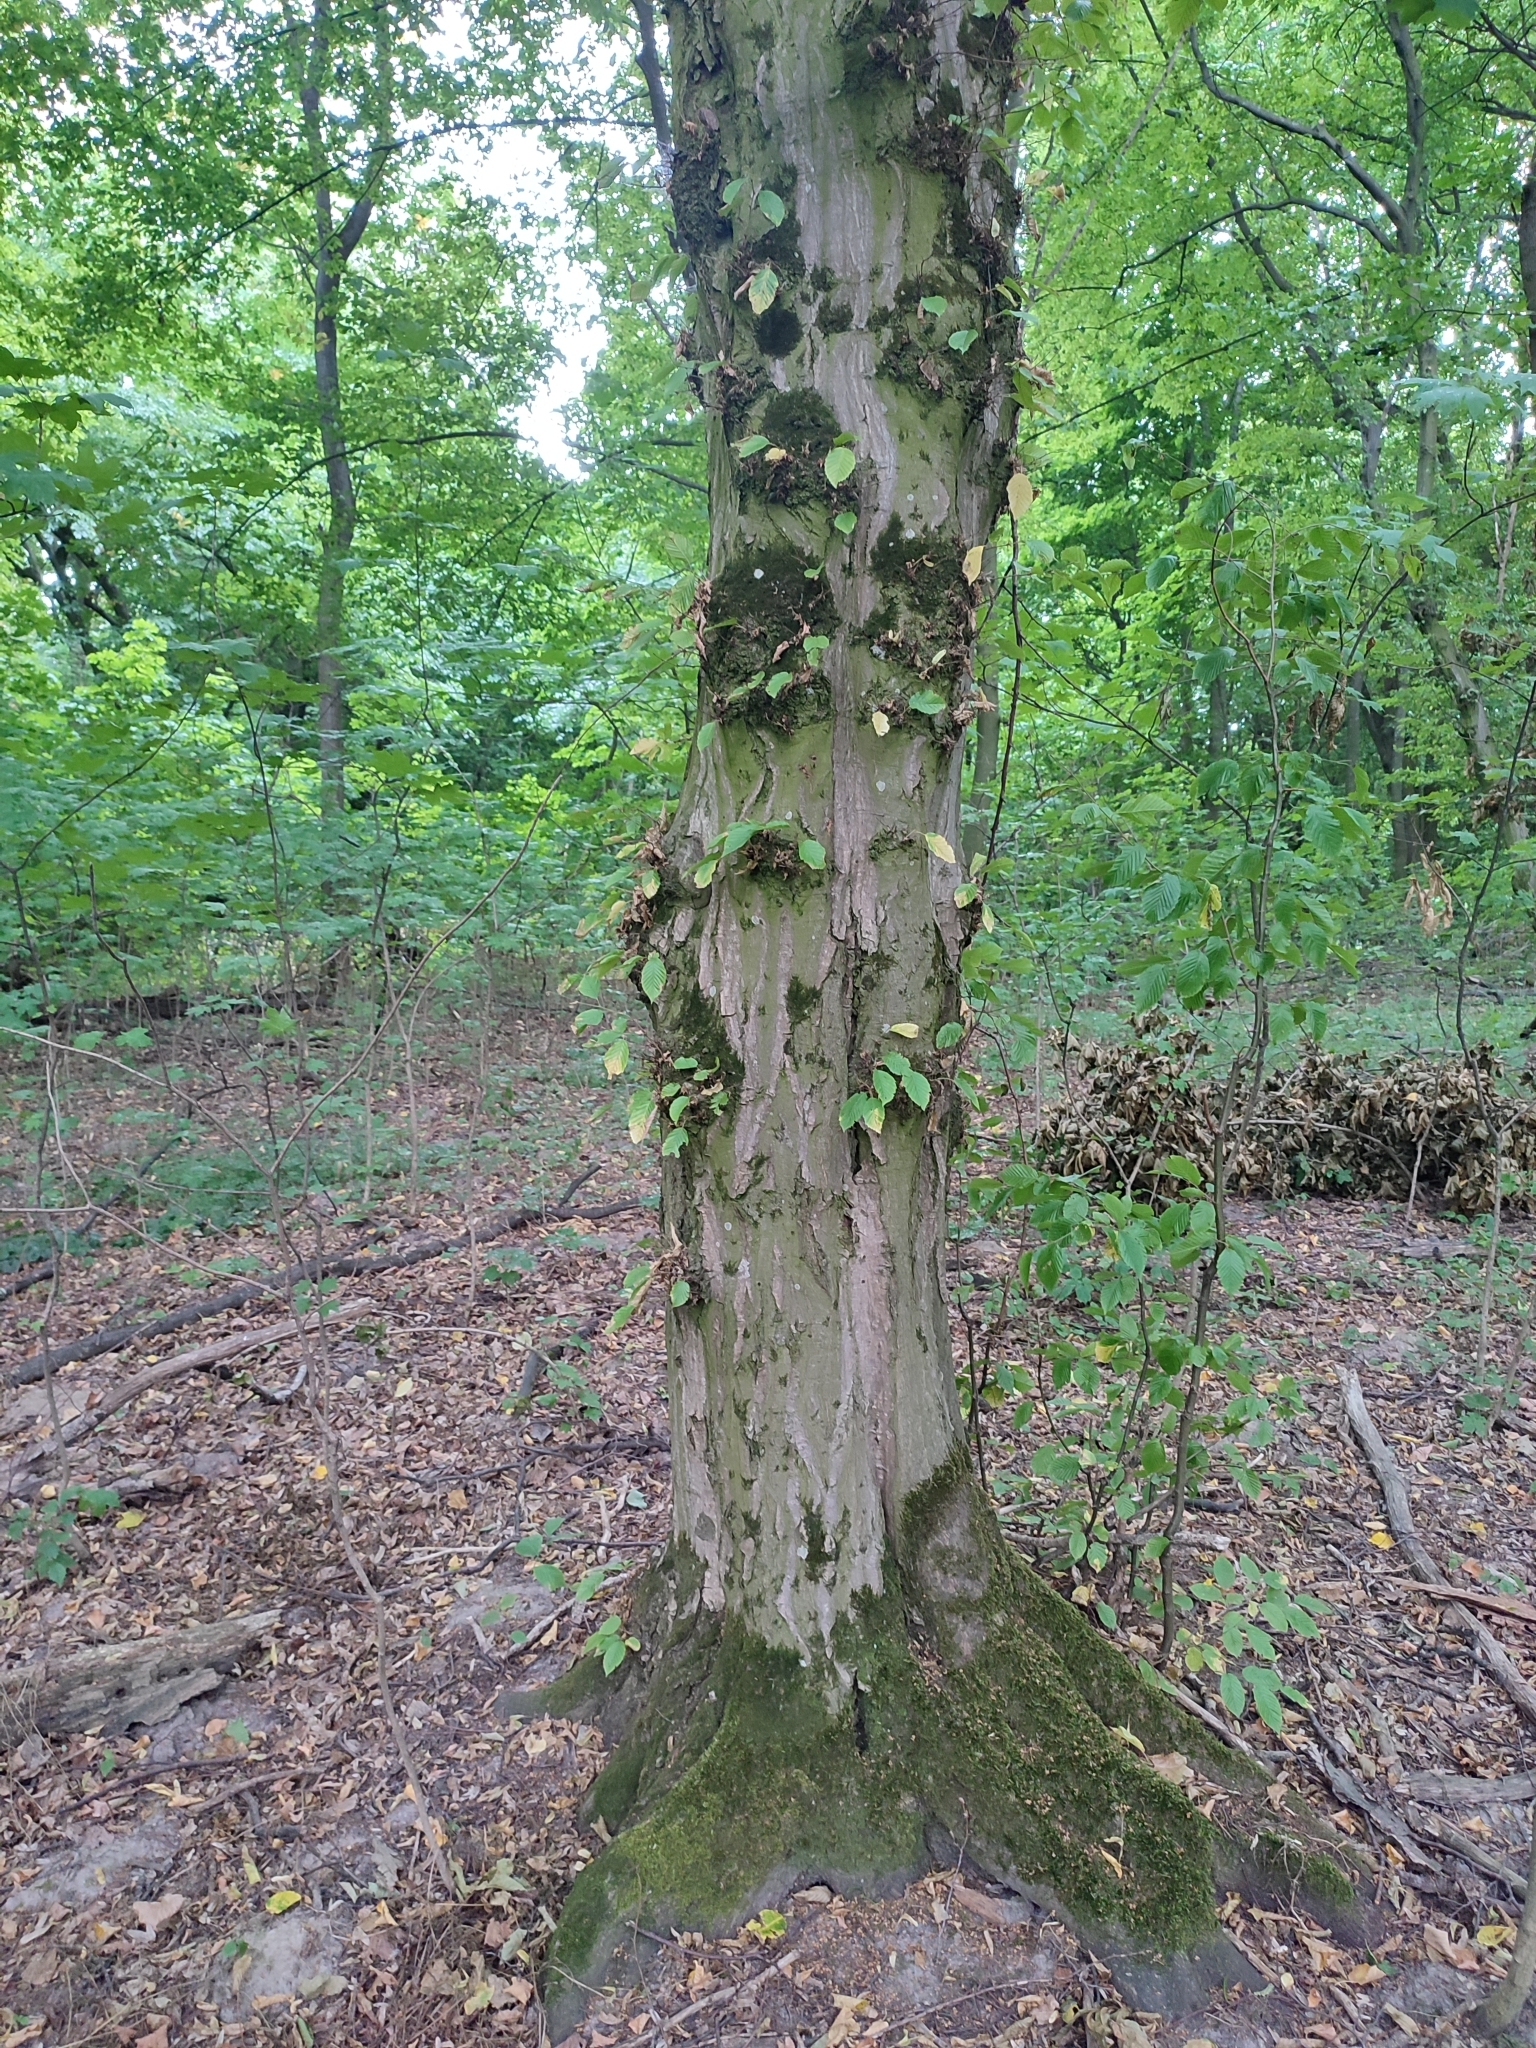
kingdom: Plantae
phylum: Tracheophyta
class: Magnoliopsida
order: Fagales
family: Betulaceae
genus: Carpinus
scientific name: Carpinus betulus
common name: Hornbeam
